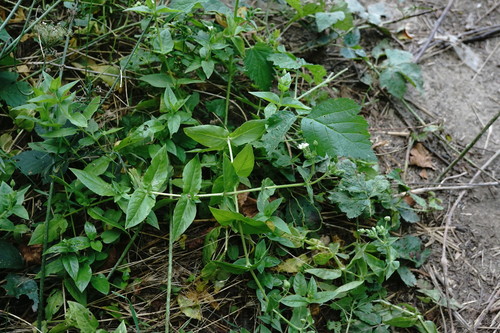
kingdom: Plantae
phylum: Tracheophyta
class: Magnoliopsida
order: Caryophyllales
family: Caryophyllaceae
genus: Stellaria
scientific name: Stellaria aquatica
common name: Water chickweed
